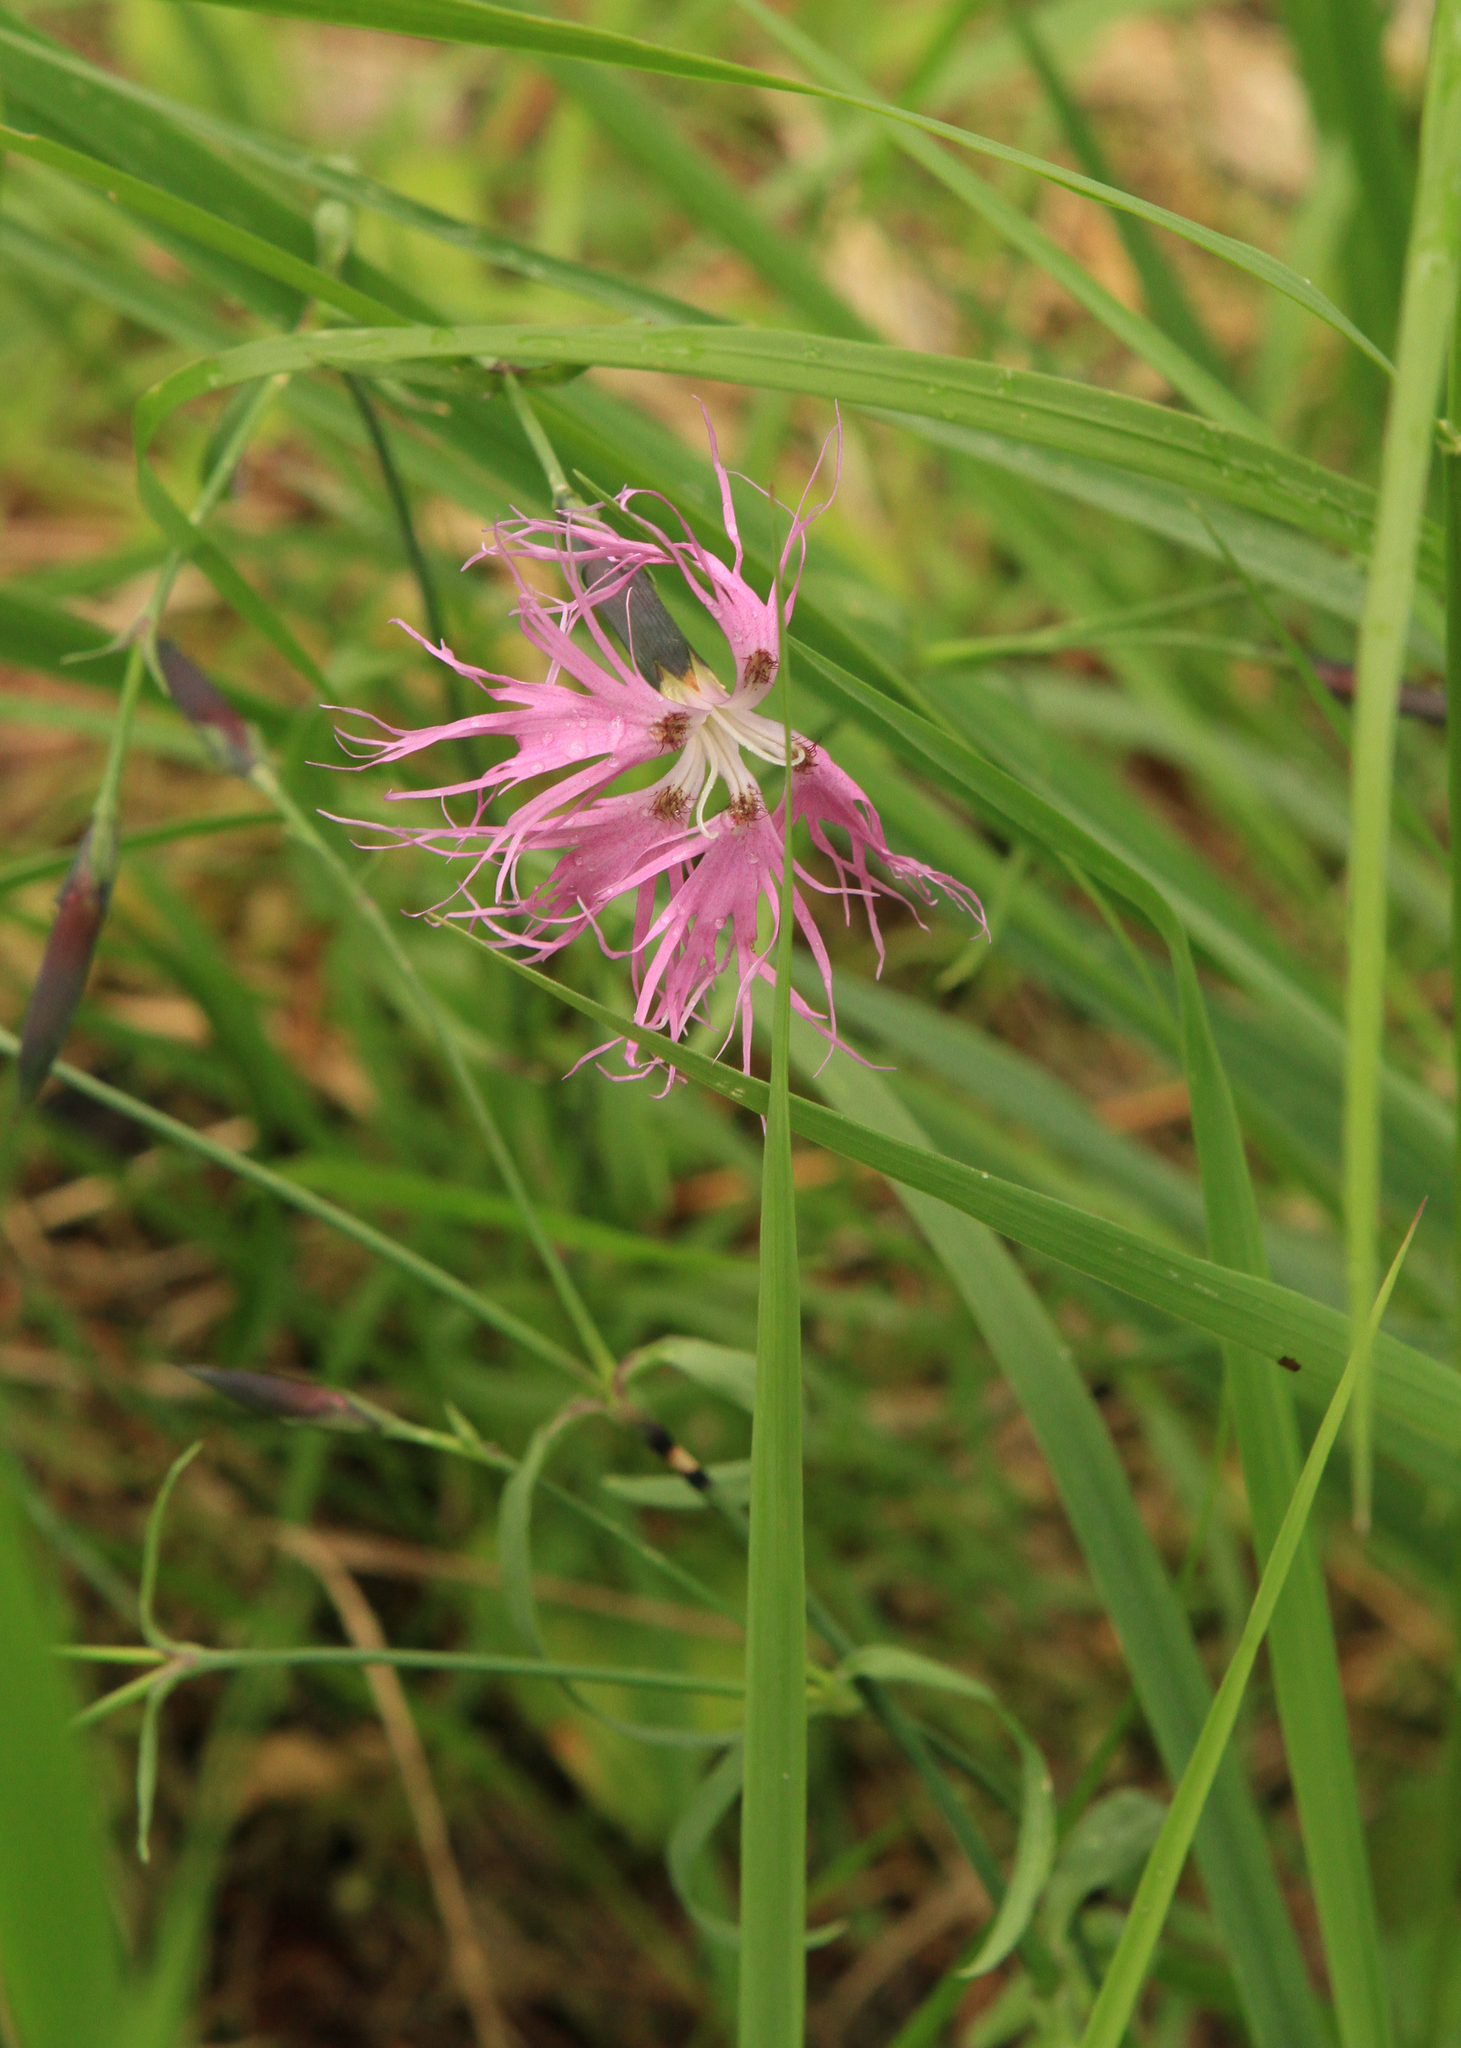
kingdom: Plantae
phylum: Tracheophyta
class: Magnoliopsida
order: Caryophyllales
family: Caryophyllaceae
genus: Dianthus
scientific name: Dianthus superbus
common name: Fringed pink
